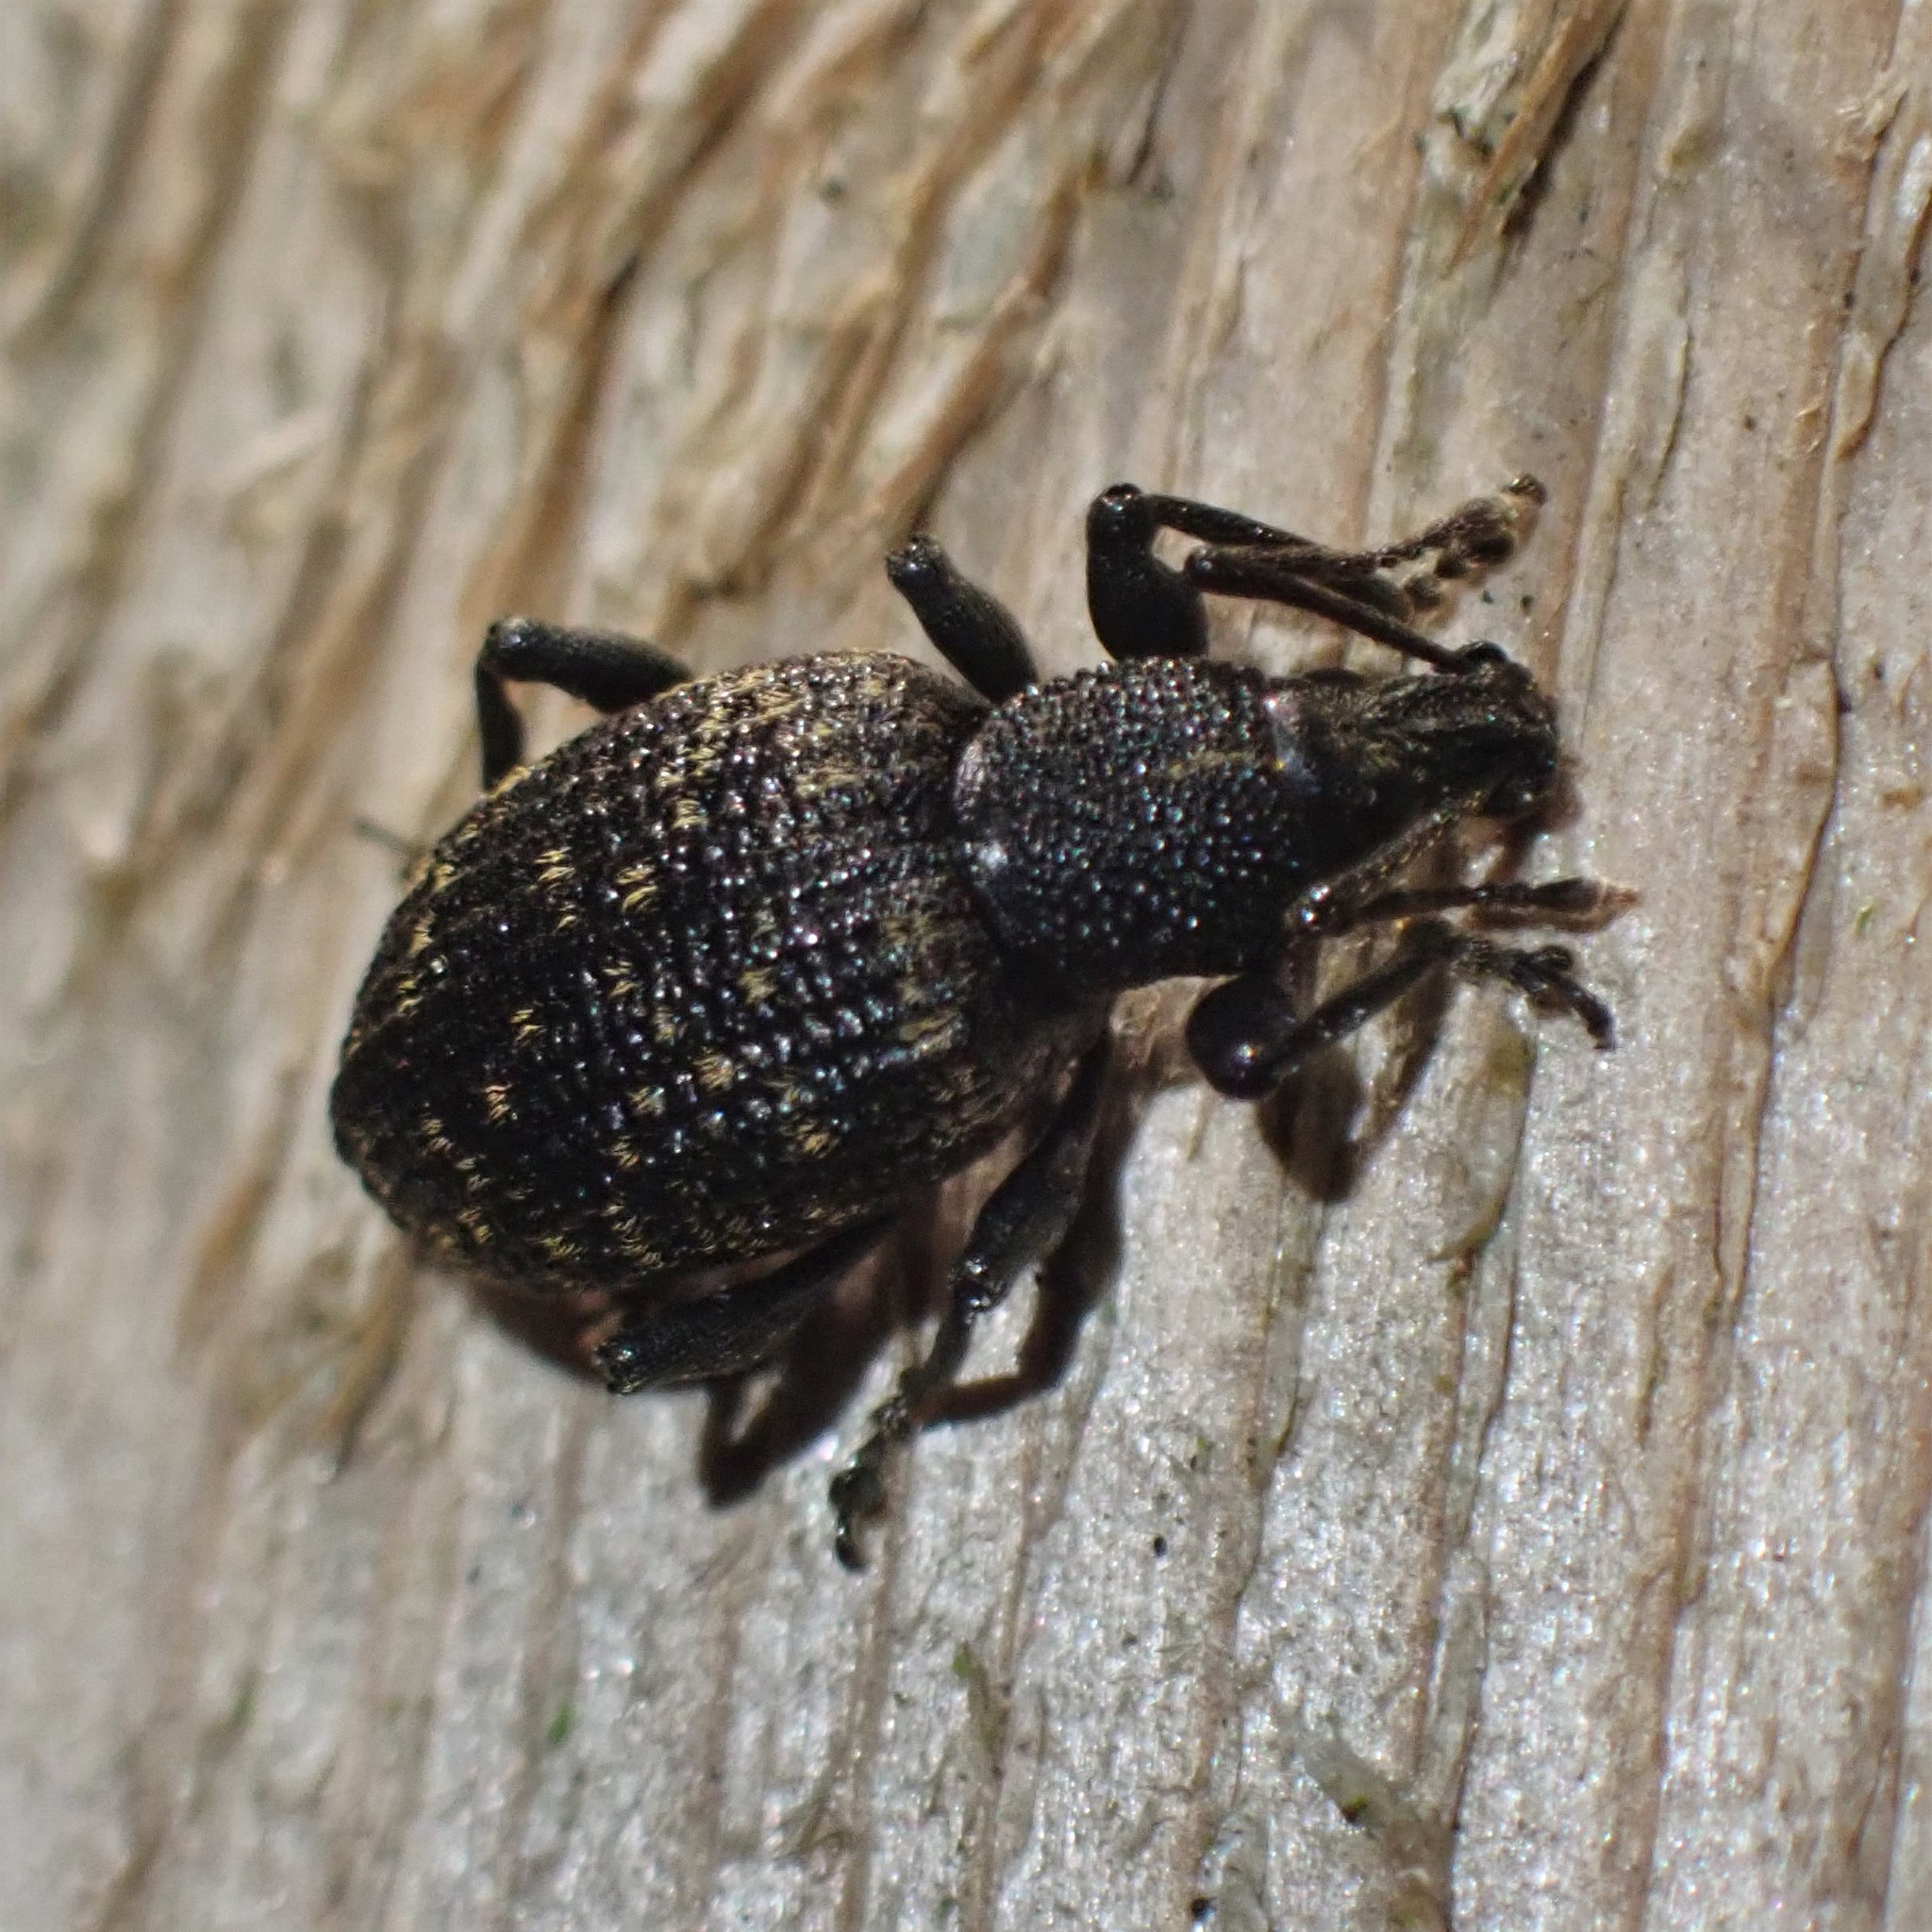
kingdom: Animalia
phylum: Arthropoda
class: Insecta
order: Coleoptera
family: Curculionidae
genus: Otiorhynchus
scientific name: Otiorhynchus sulcatus
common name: Black vine weevil
